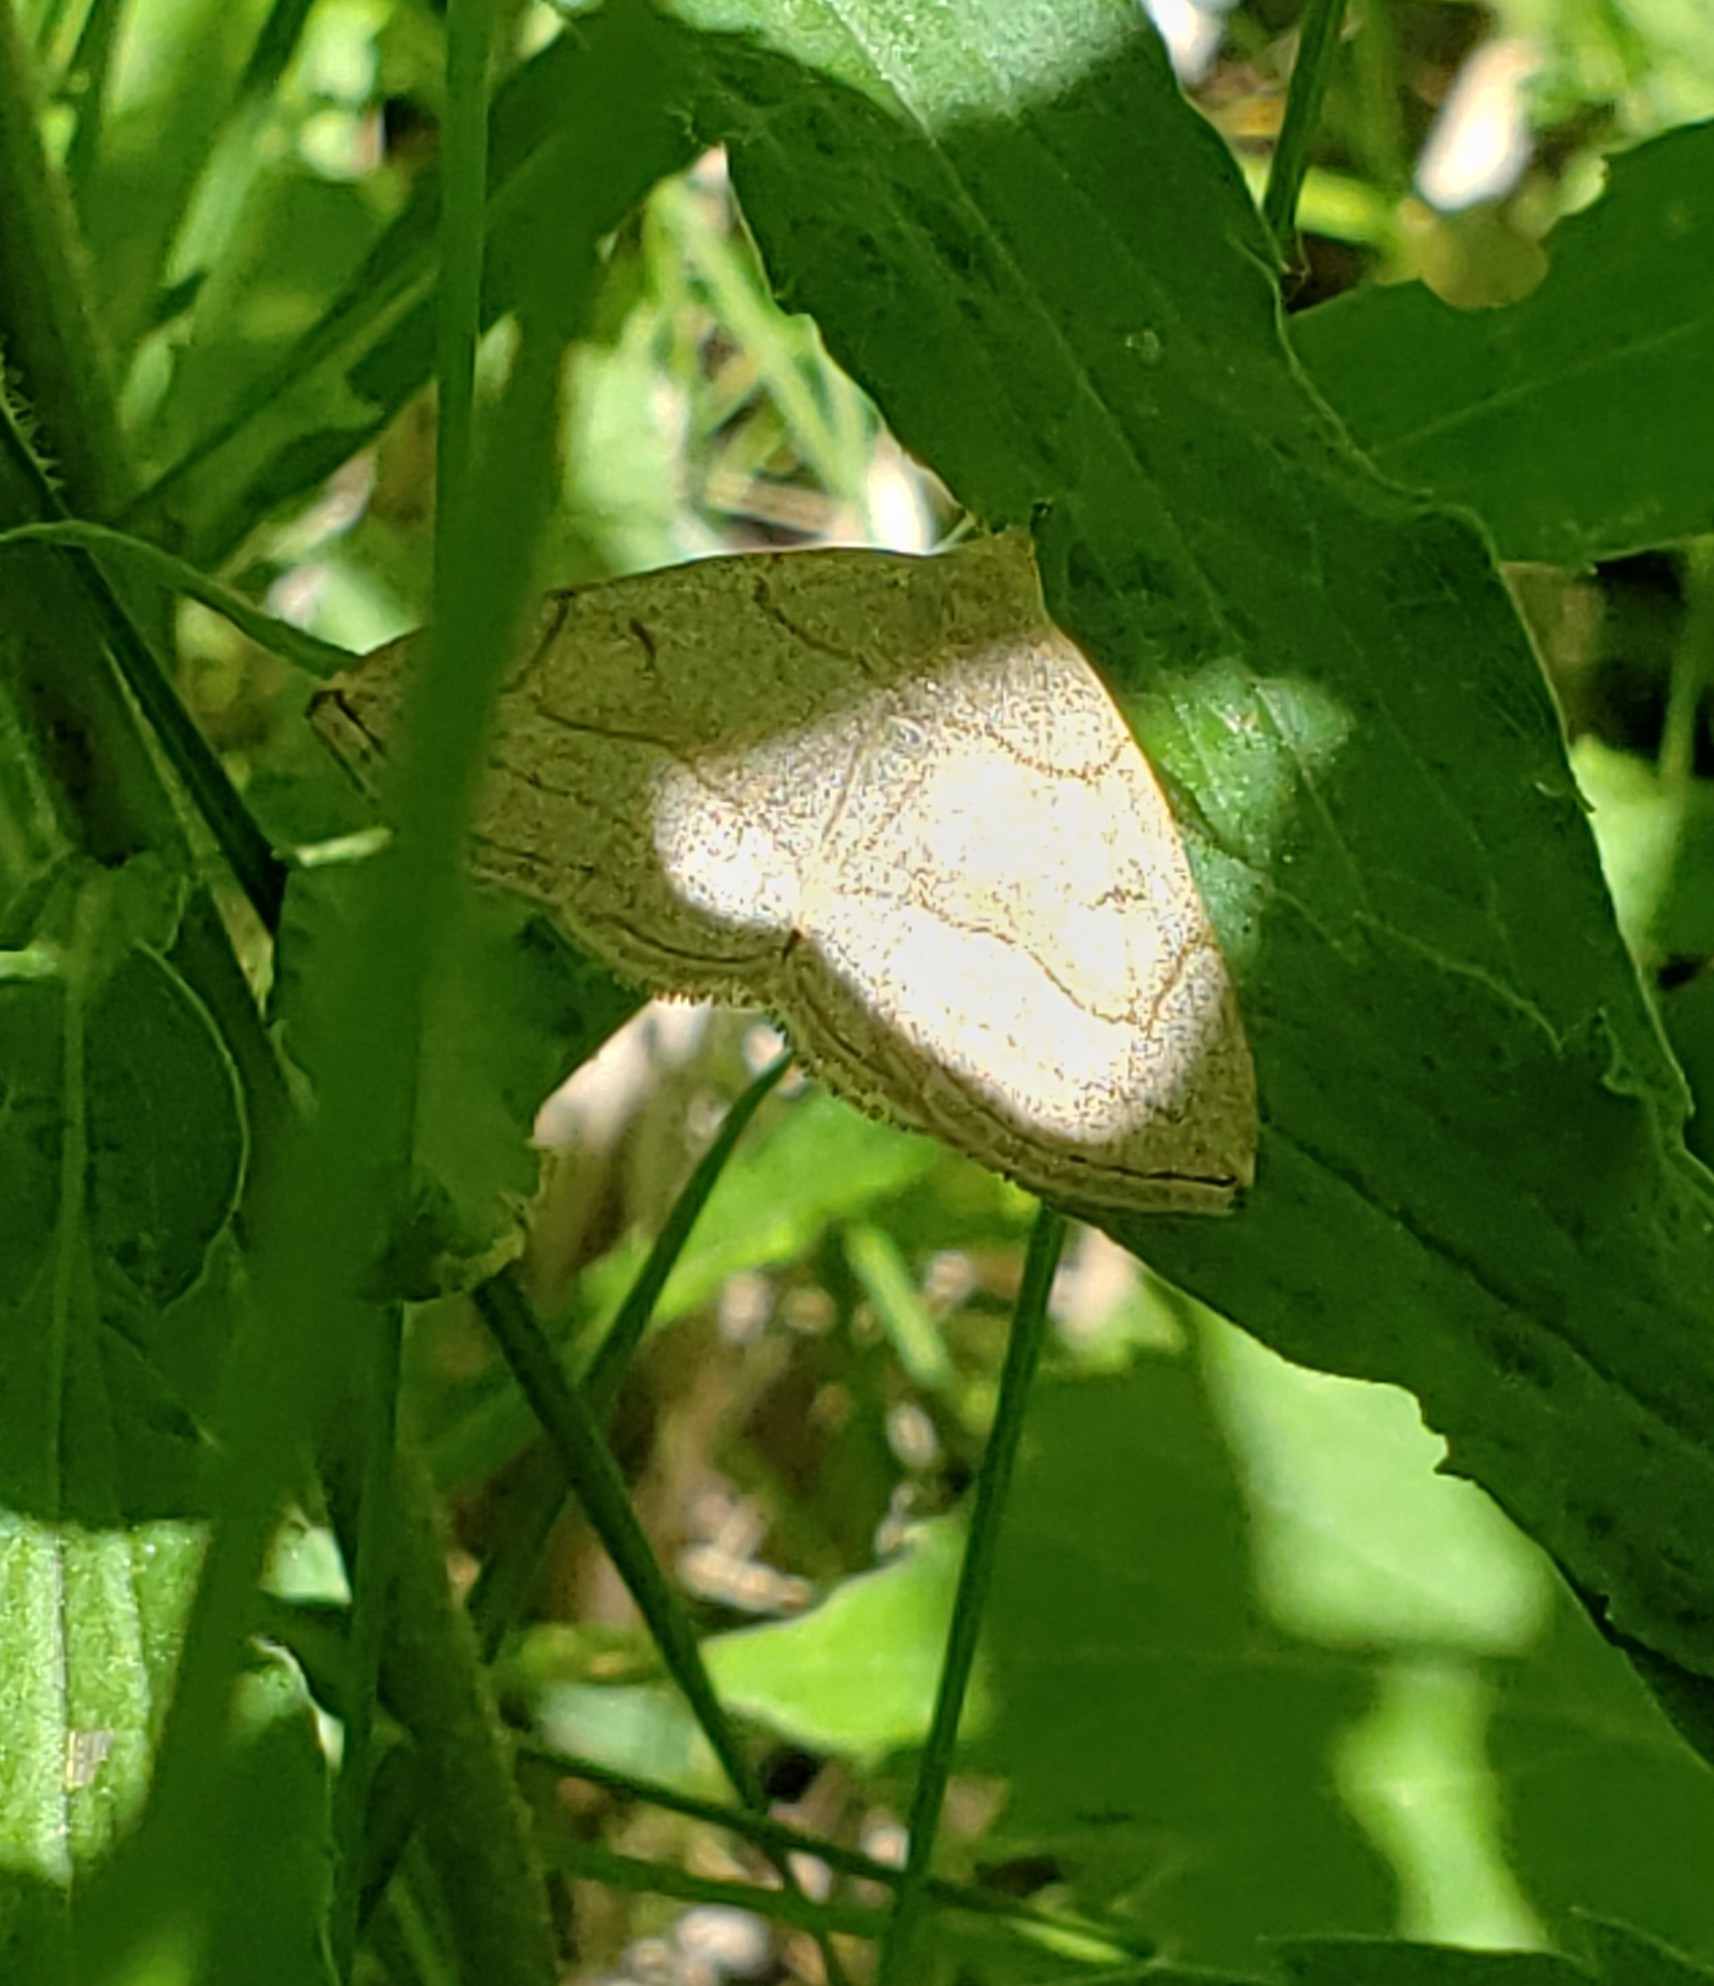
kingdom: Animalia
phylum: Arthropoda
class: Insecta
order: Lepidoptera
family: Erebidae
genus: Zanclognatha
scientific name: Zanclognatha pedipilalis
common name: Grayish fan-foot
